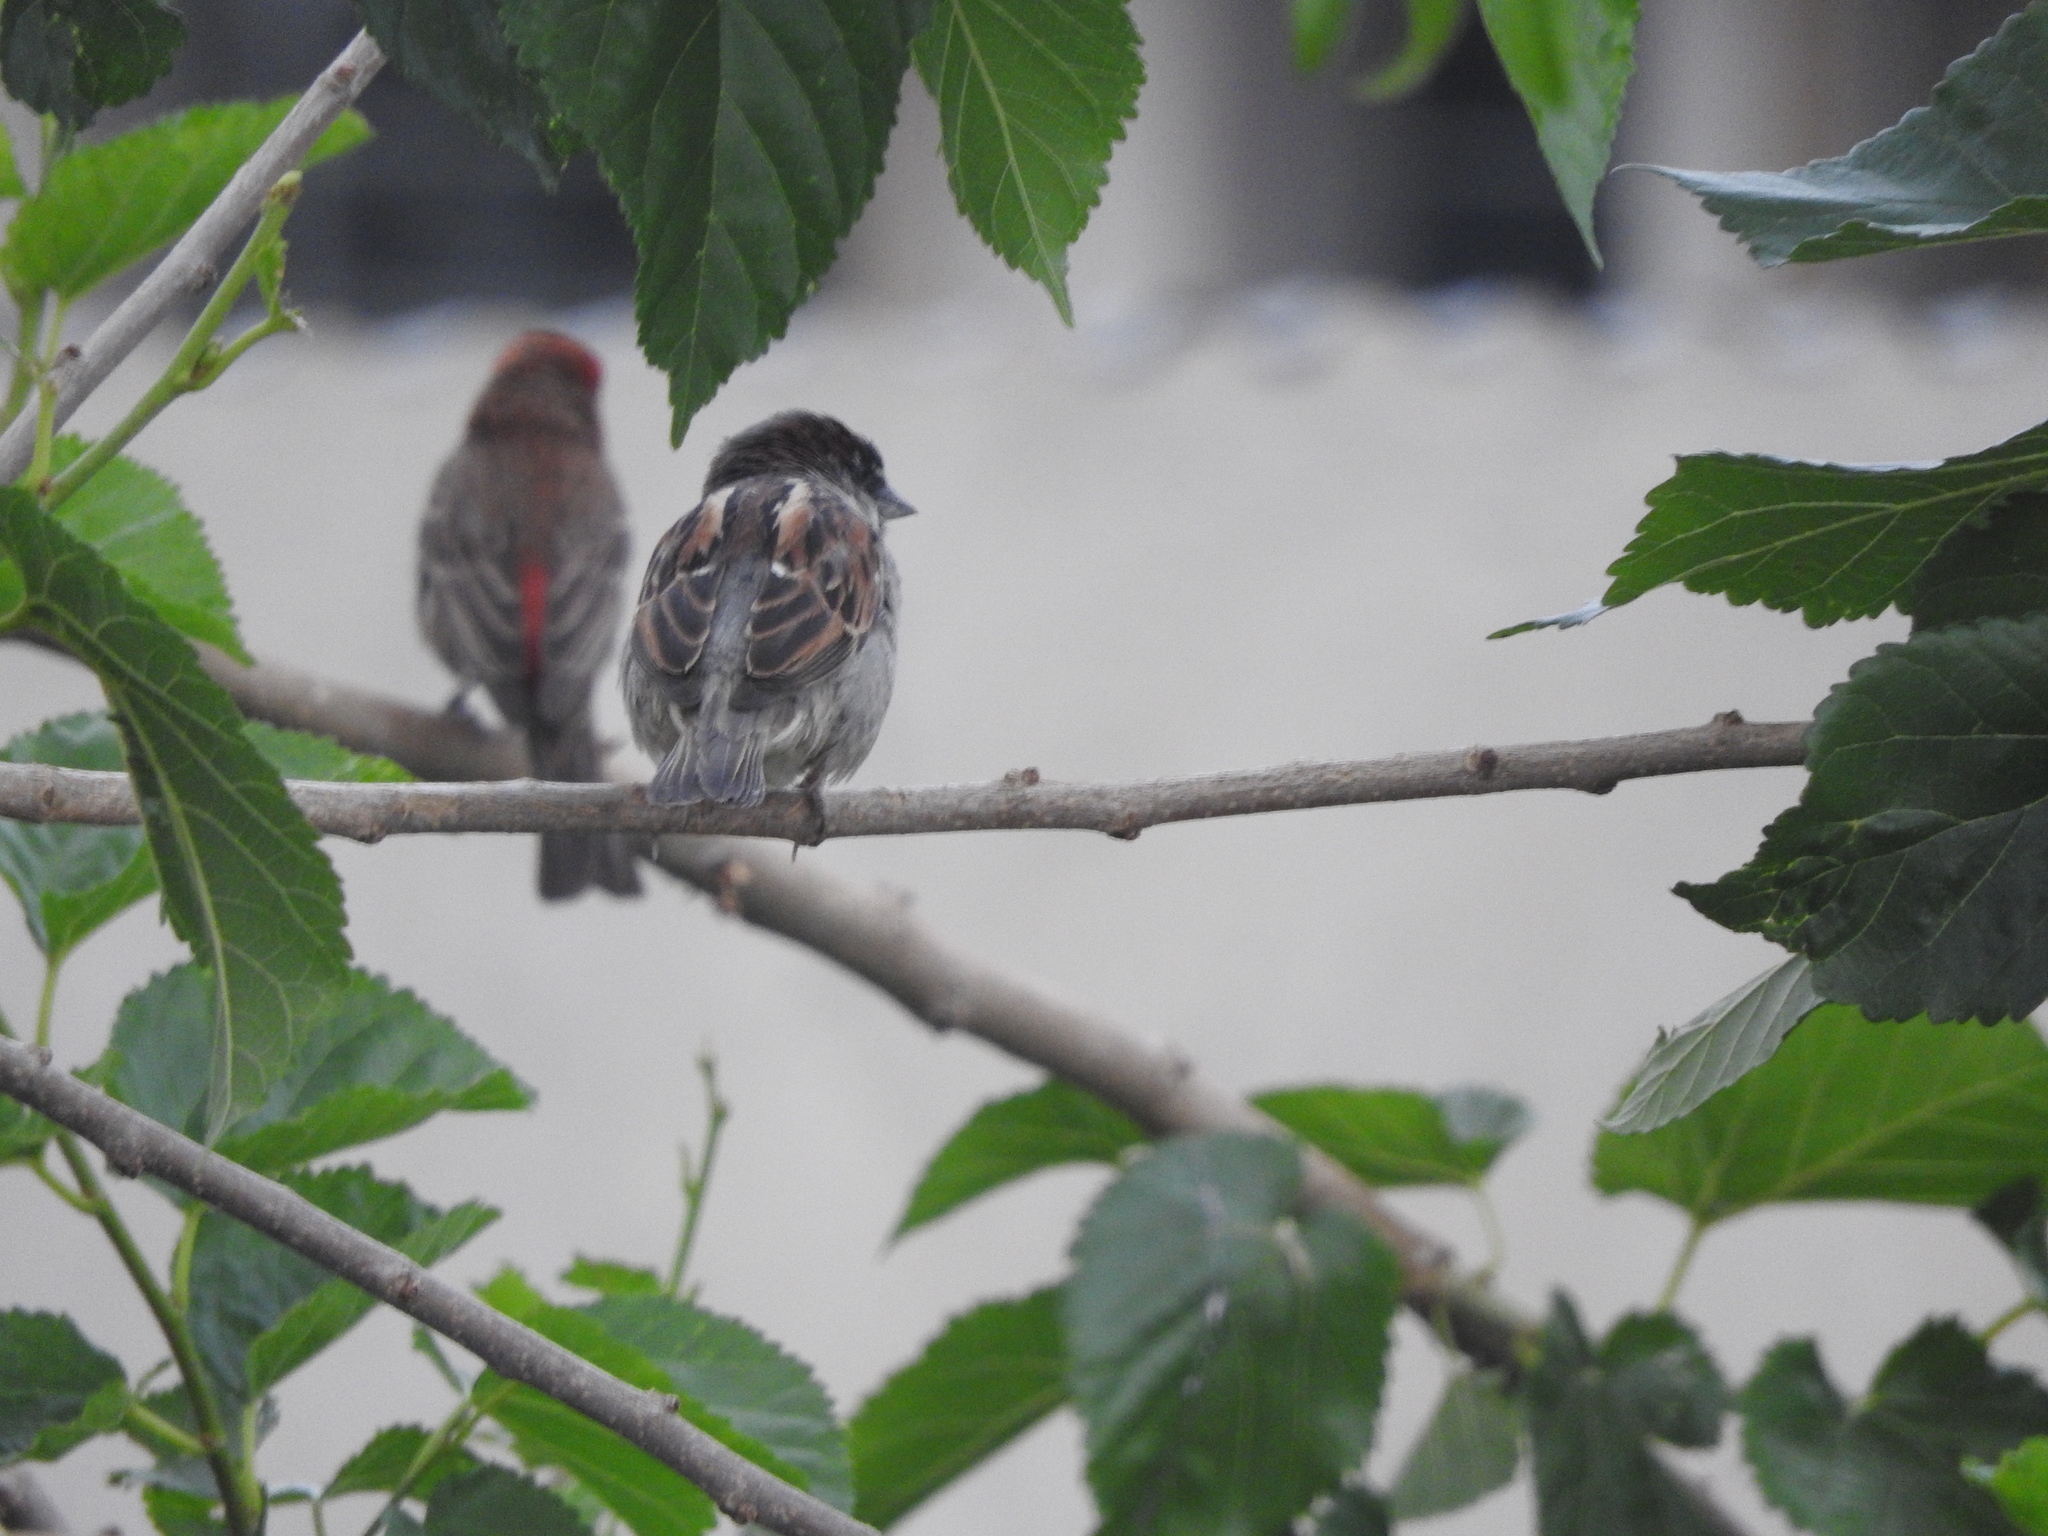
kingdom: Animalia
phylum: Chordata
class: Aves
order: Passeriformes
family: Passeridae
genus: Passer
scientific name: Passer domesticus
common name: House sparrow
